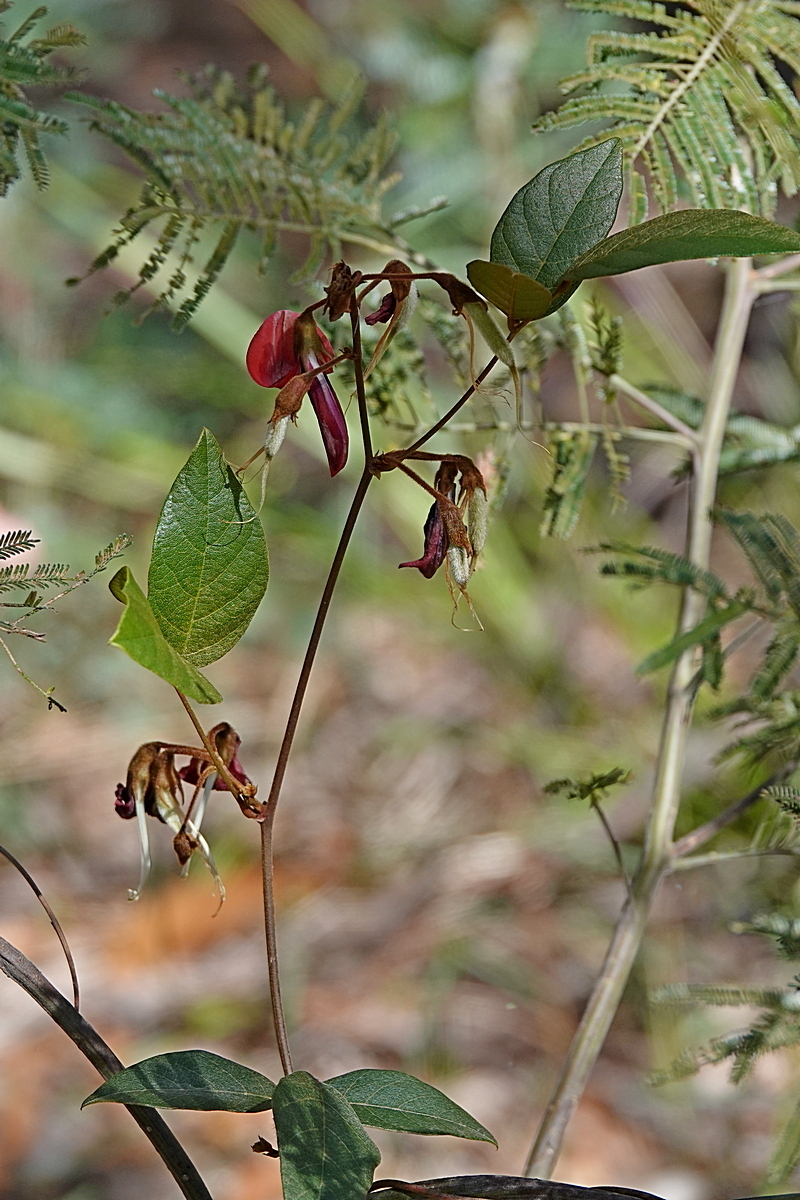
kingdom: Plantae
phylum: Tracheophyta
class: Magnoliopsida
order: Fabales
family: Fabaceae
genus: Kennedia
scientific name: Kennedia rubicunda
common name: Red kennedy-pea
